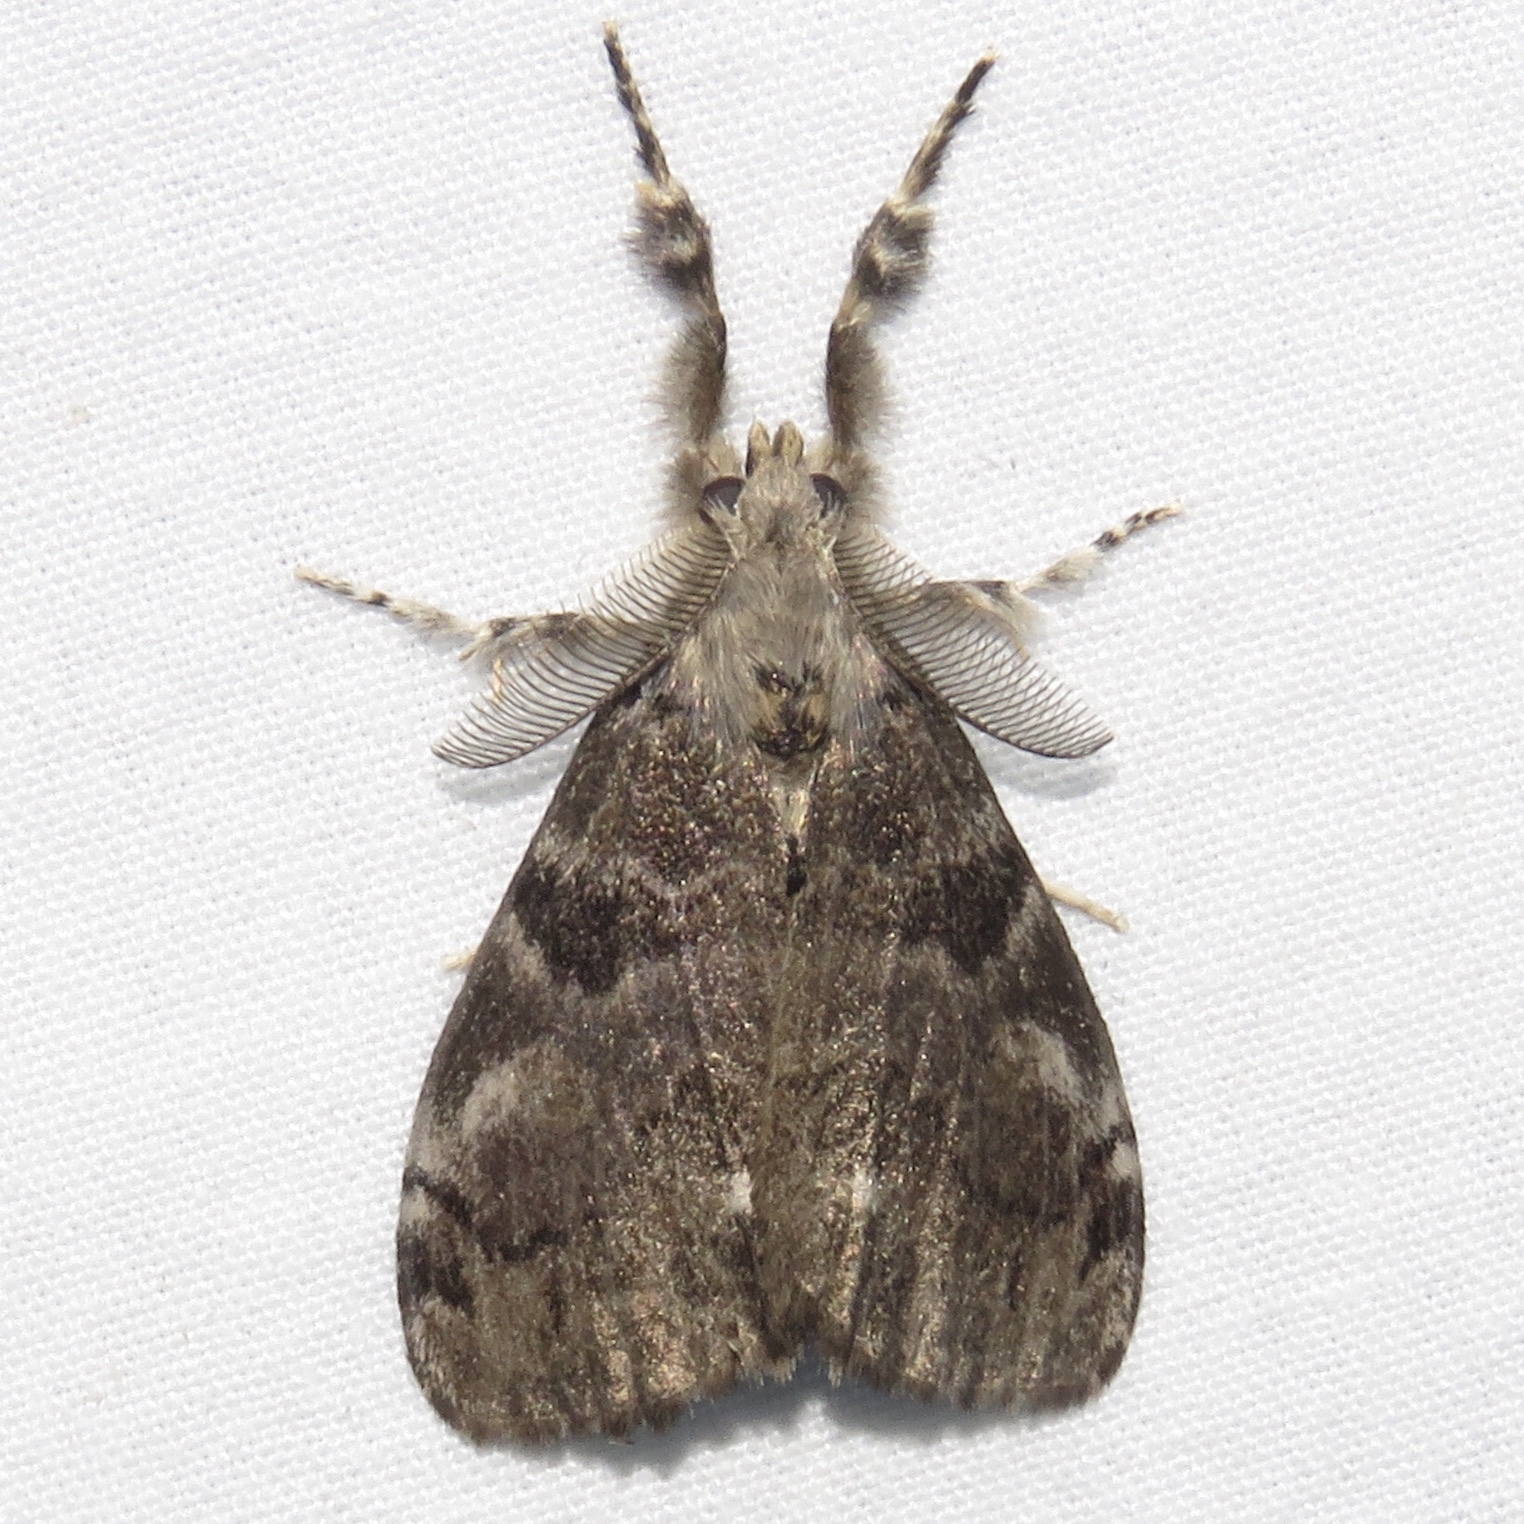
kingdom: Animalia
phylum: Arthropoda
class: Insecta
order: Lepidoptera
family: Erebidae
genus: Orgyia
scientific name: Orgyia leucostigma
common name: White-marked tussock moth
